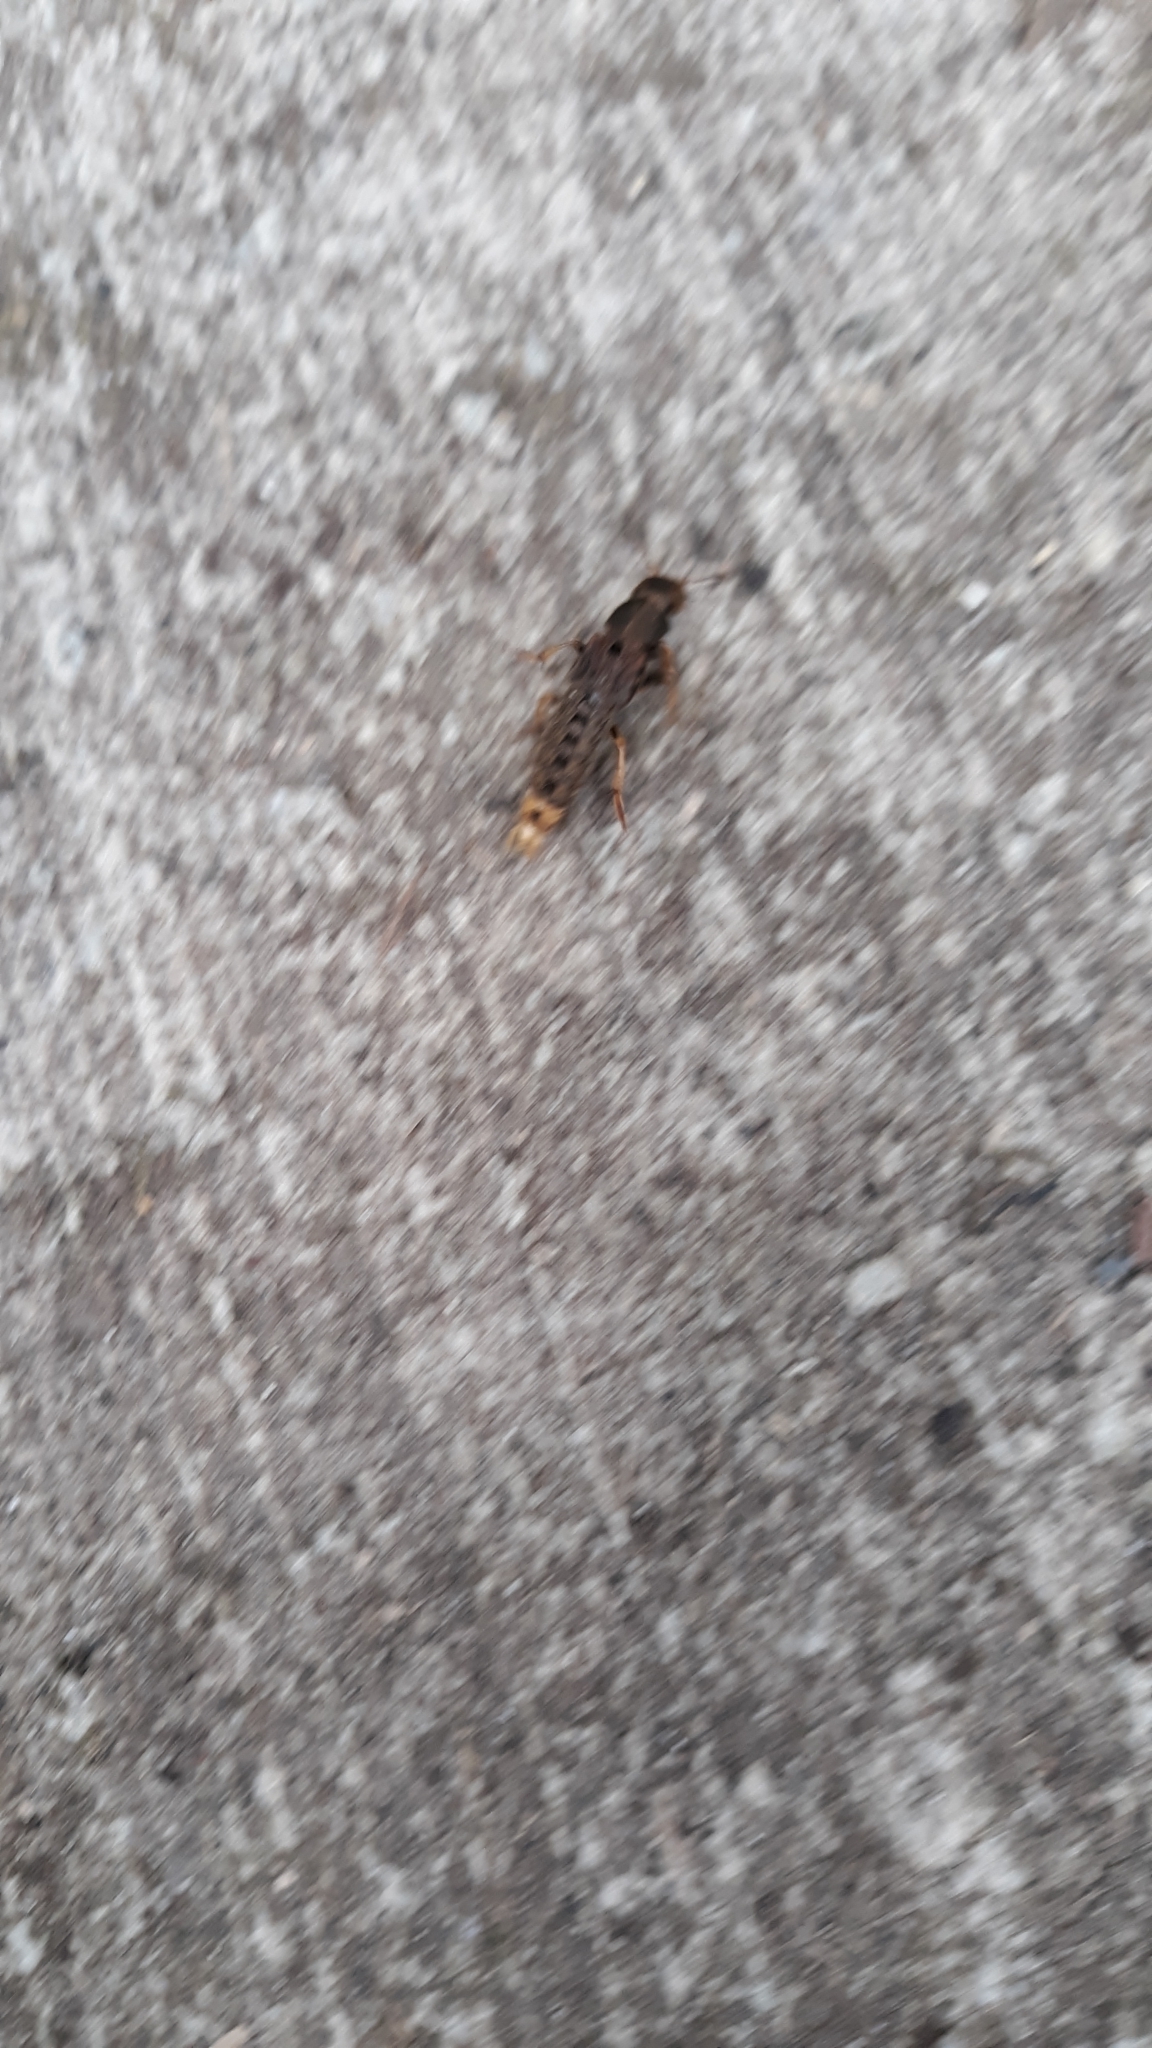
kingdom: Animalia
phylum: Arthropoda
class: Insecta
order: Coleoptera
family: Staphylinidae
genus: Platydracus
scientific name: Platydracus maculosus
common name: Brown rove beetle
